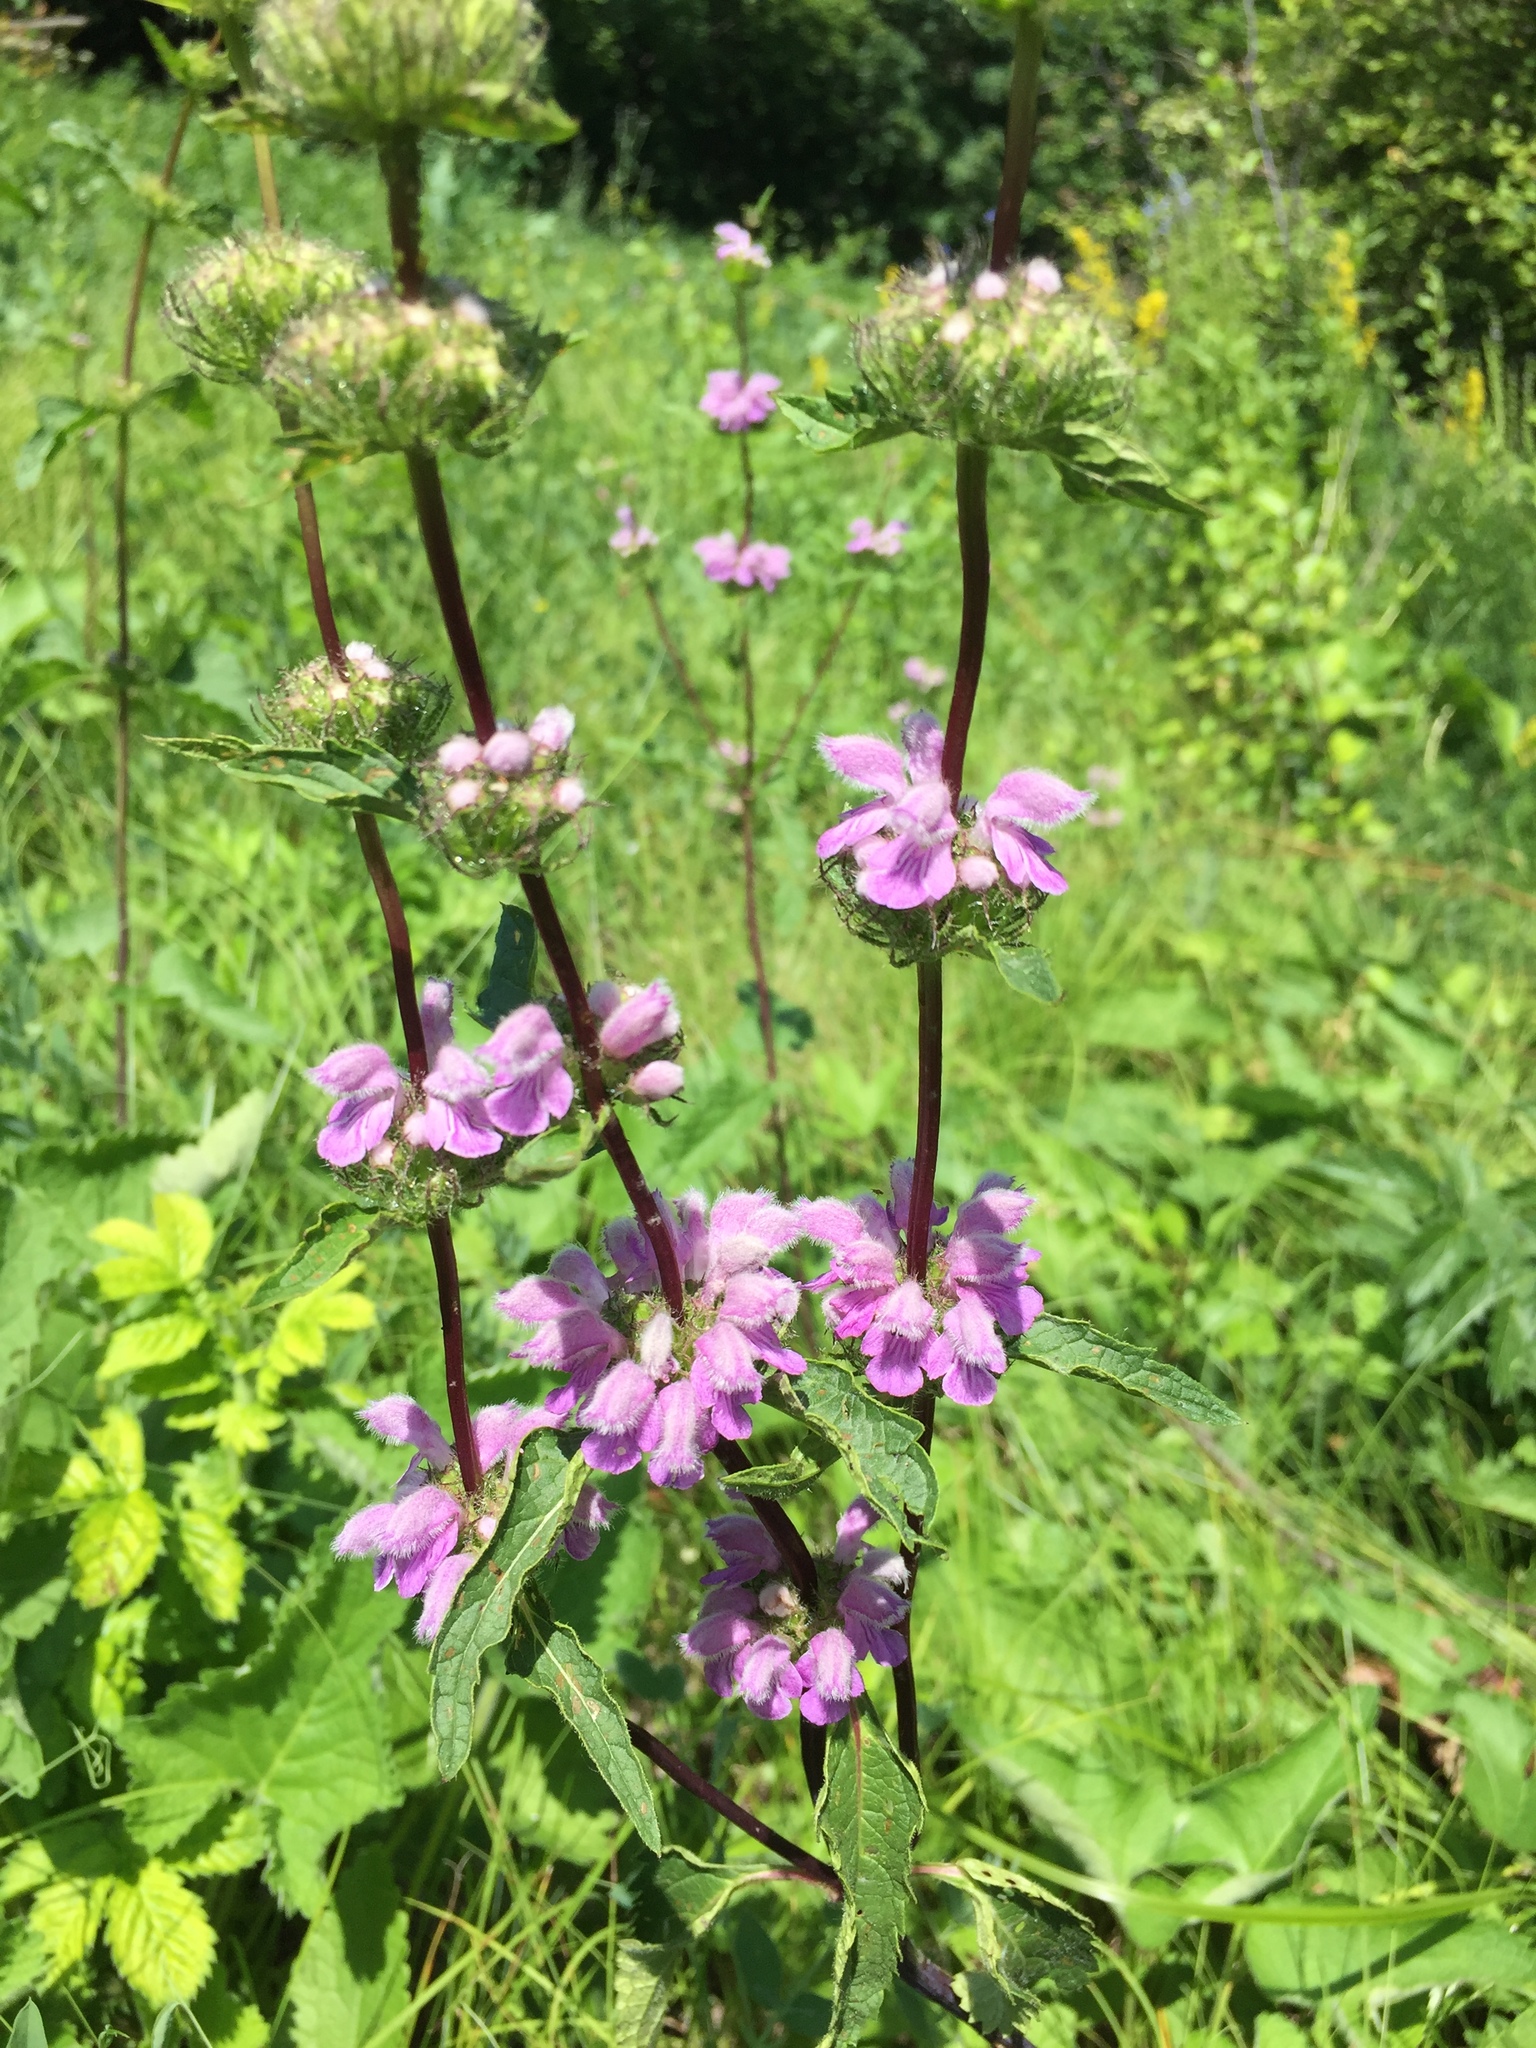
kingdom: Plantae
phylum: Tracheophyta
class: Magnoliopsida
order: Lamiales
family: Lamiaceae
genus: Phlomoides
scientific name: Phlomoides tuberosa
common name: Tuberous jerusalem sage
